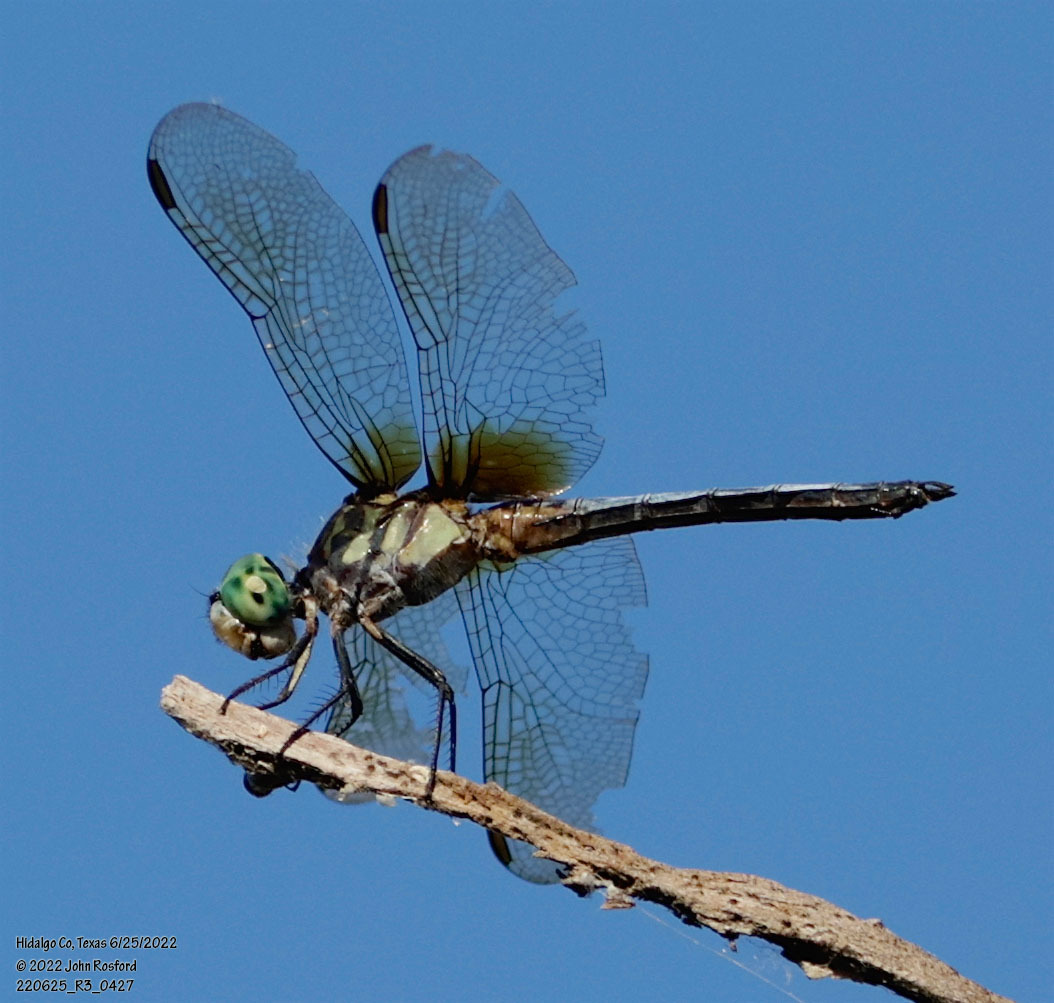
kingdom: Animalia
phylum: Arthropoda
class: Insecta
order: Odonata
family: Libellulidae
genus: Pachydiplax
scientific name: Pachydiplax longipennis
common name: Blue dasher
